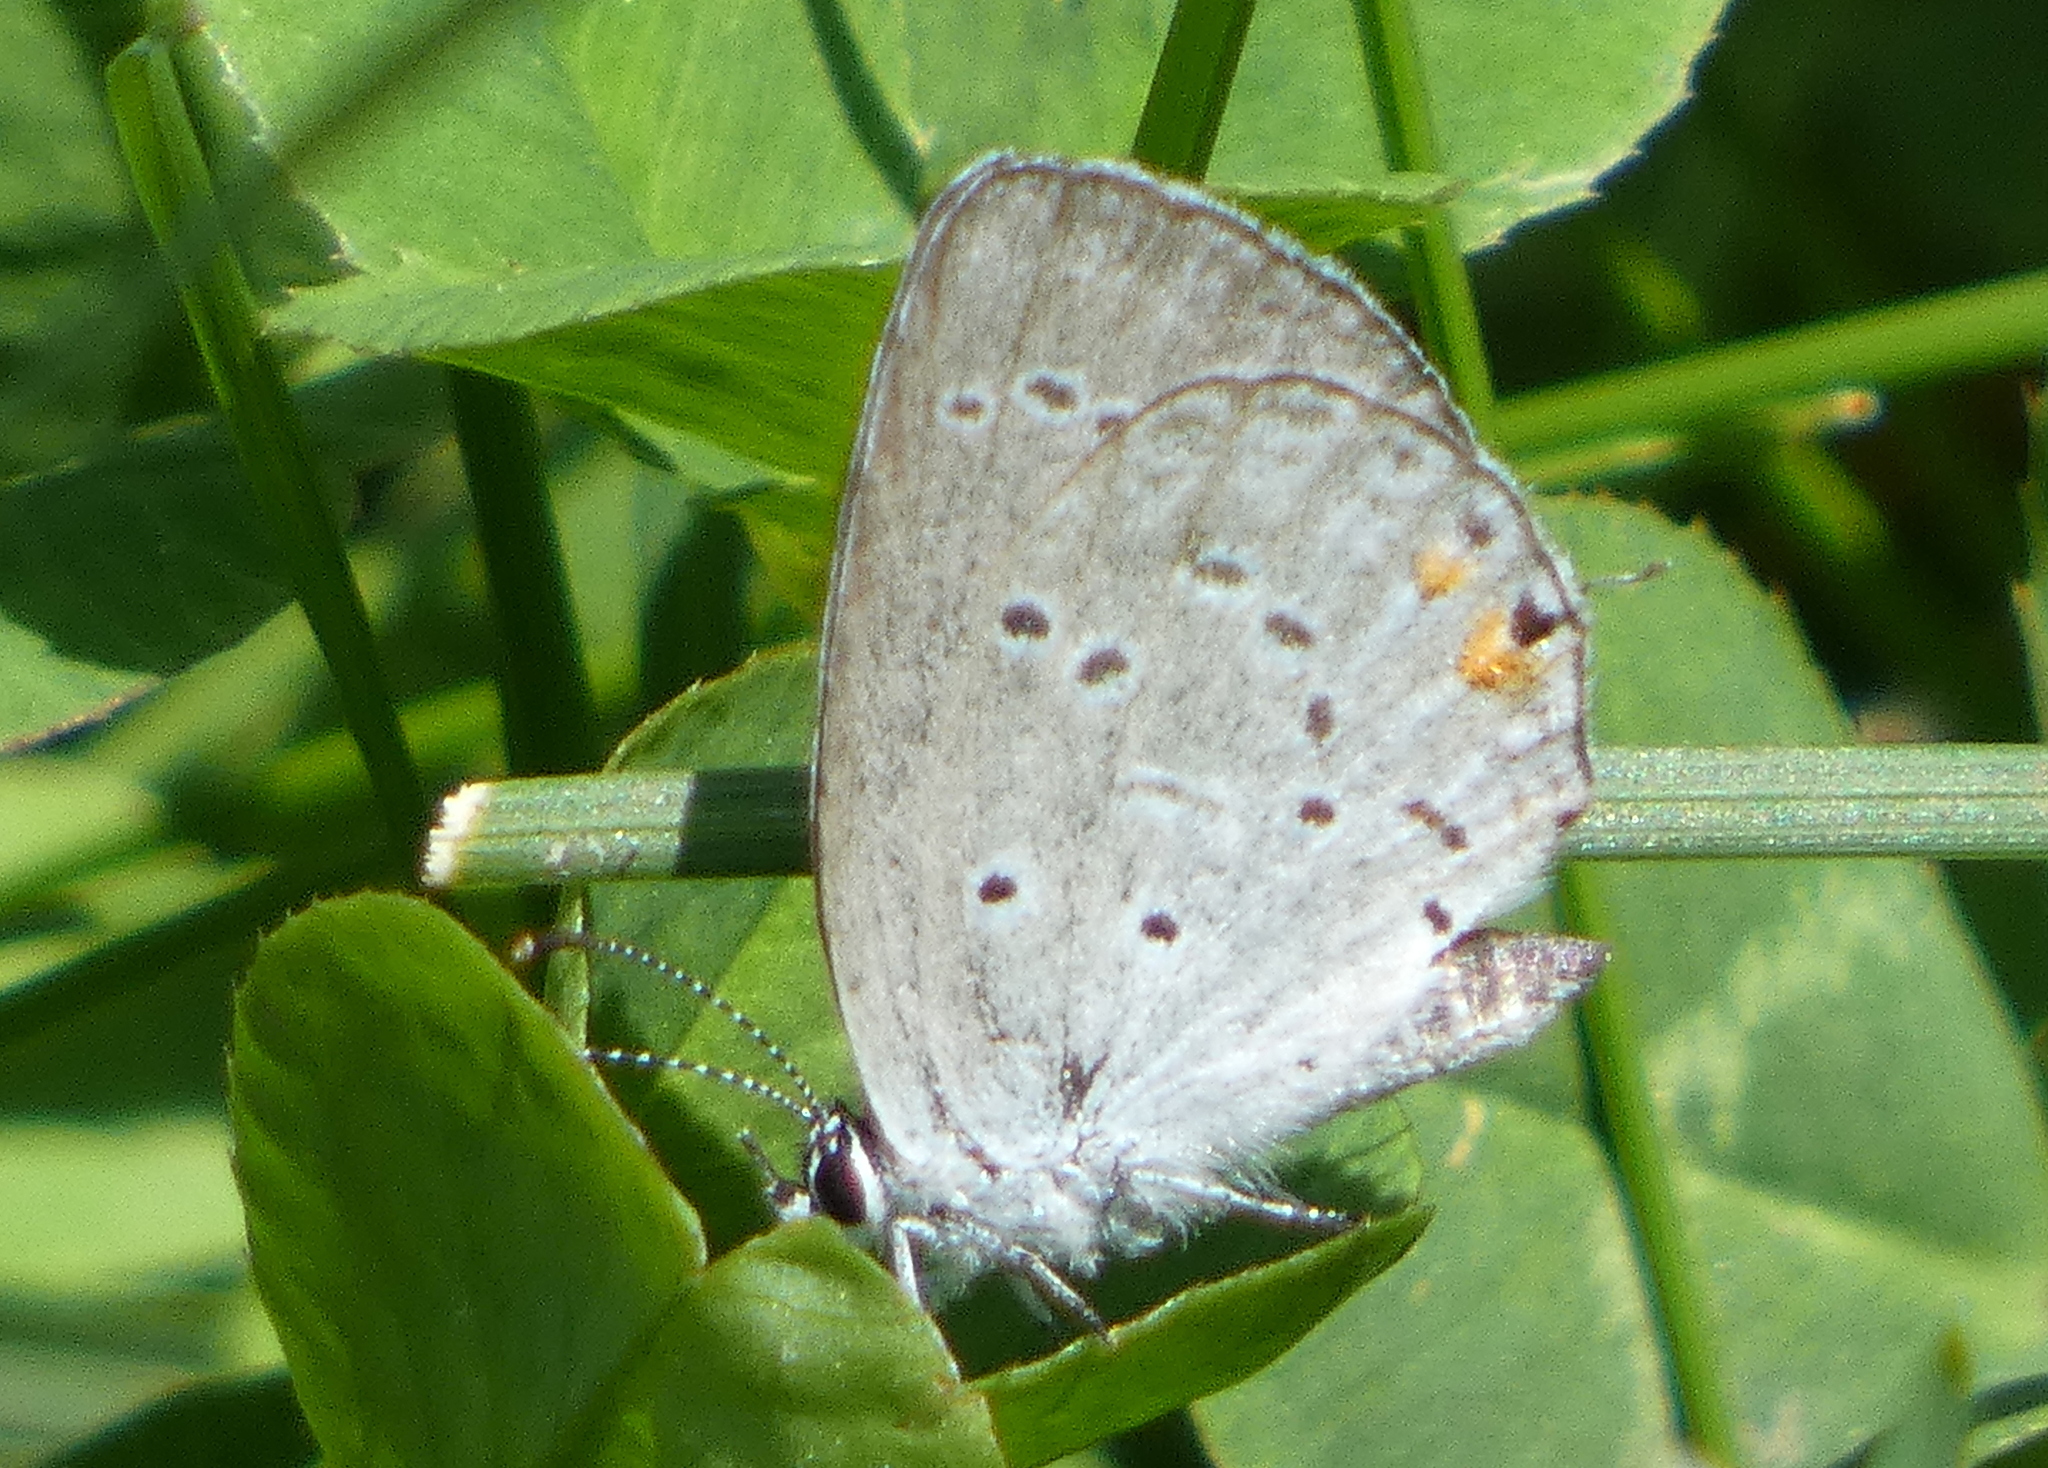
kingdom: Animalia
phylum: Arthropoda
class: Insecta
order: Lepidoptera
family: Lycaenidae
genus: Elkalyce
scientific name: Elkalyce comyntas
